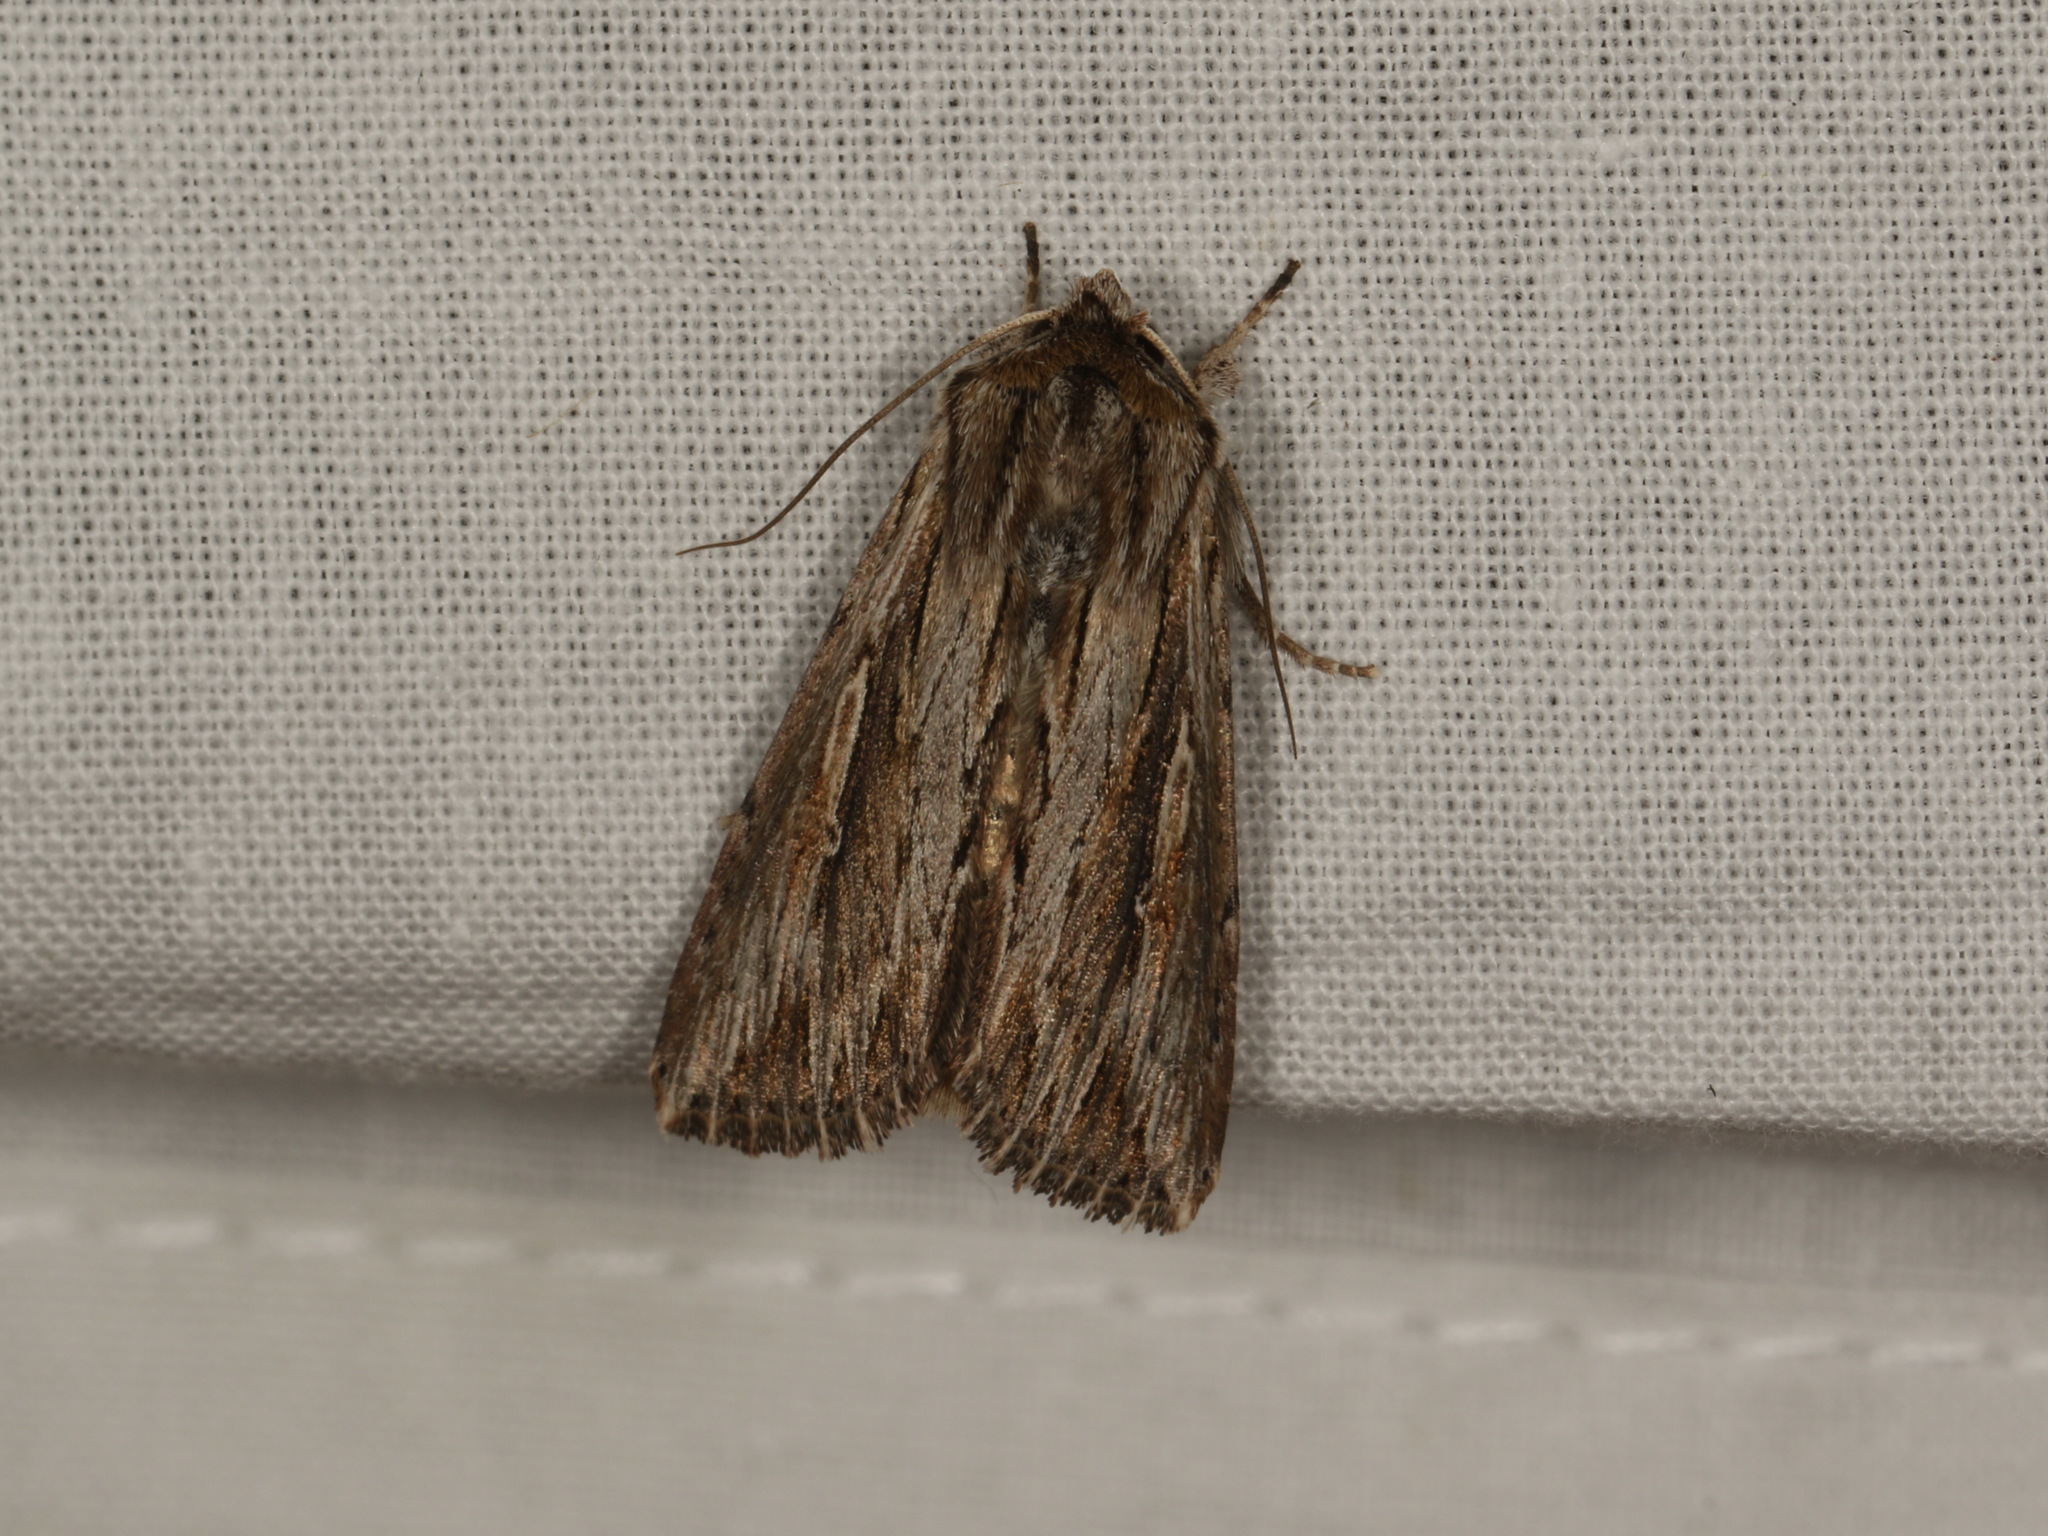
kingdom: Animalia
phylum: Arthropoda
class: Insecta
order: Lepidoptera
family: Noctuidae
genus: Persectania
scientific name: Persectania ewingii
